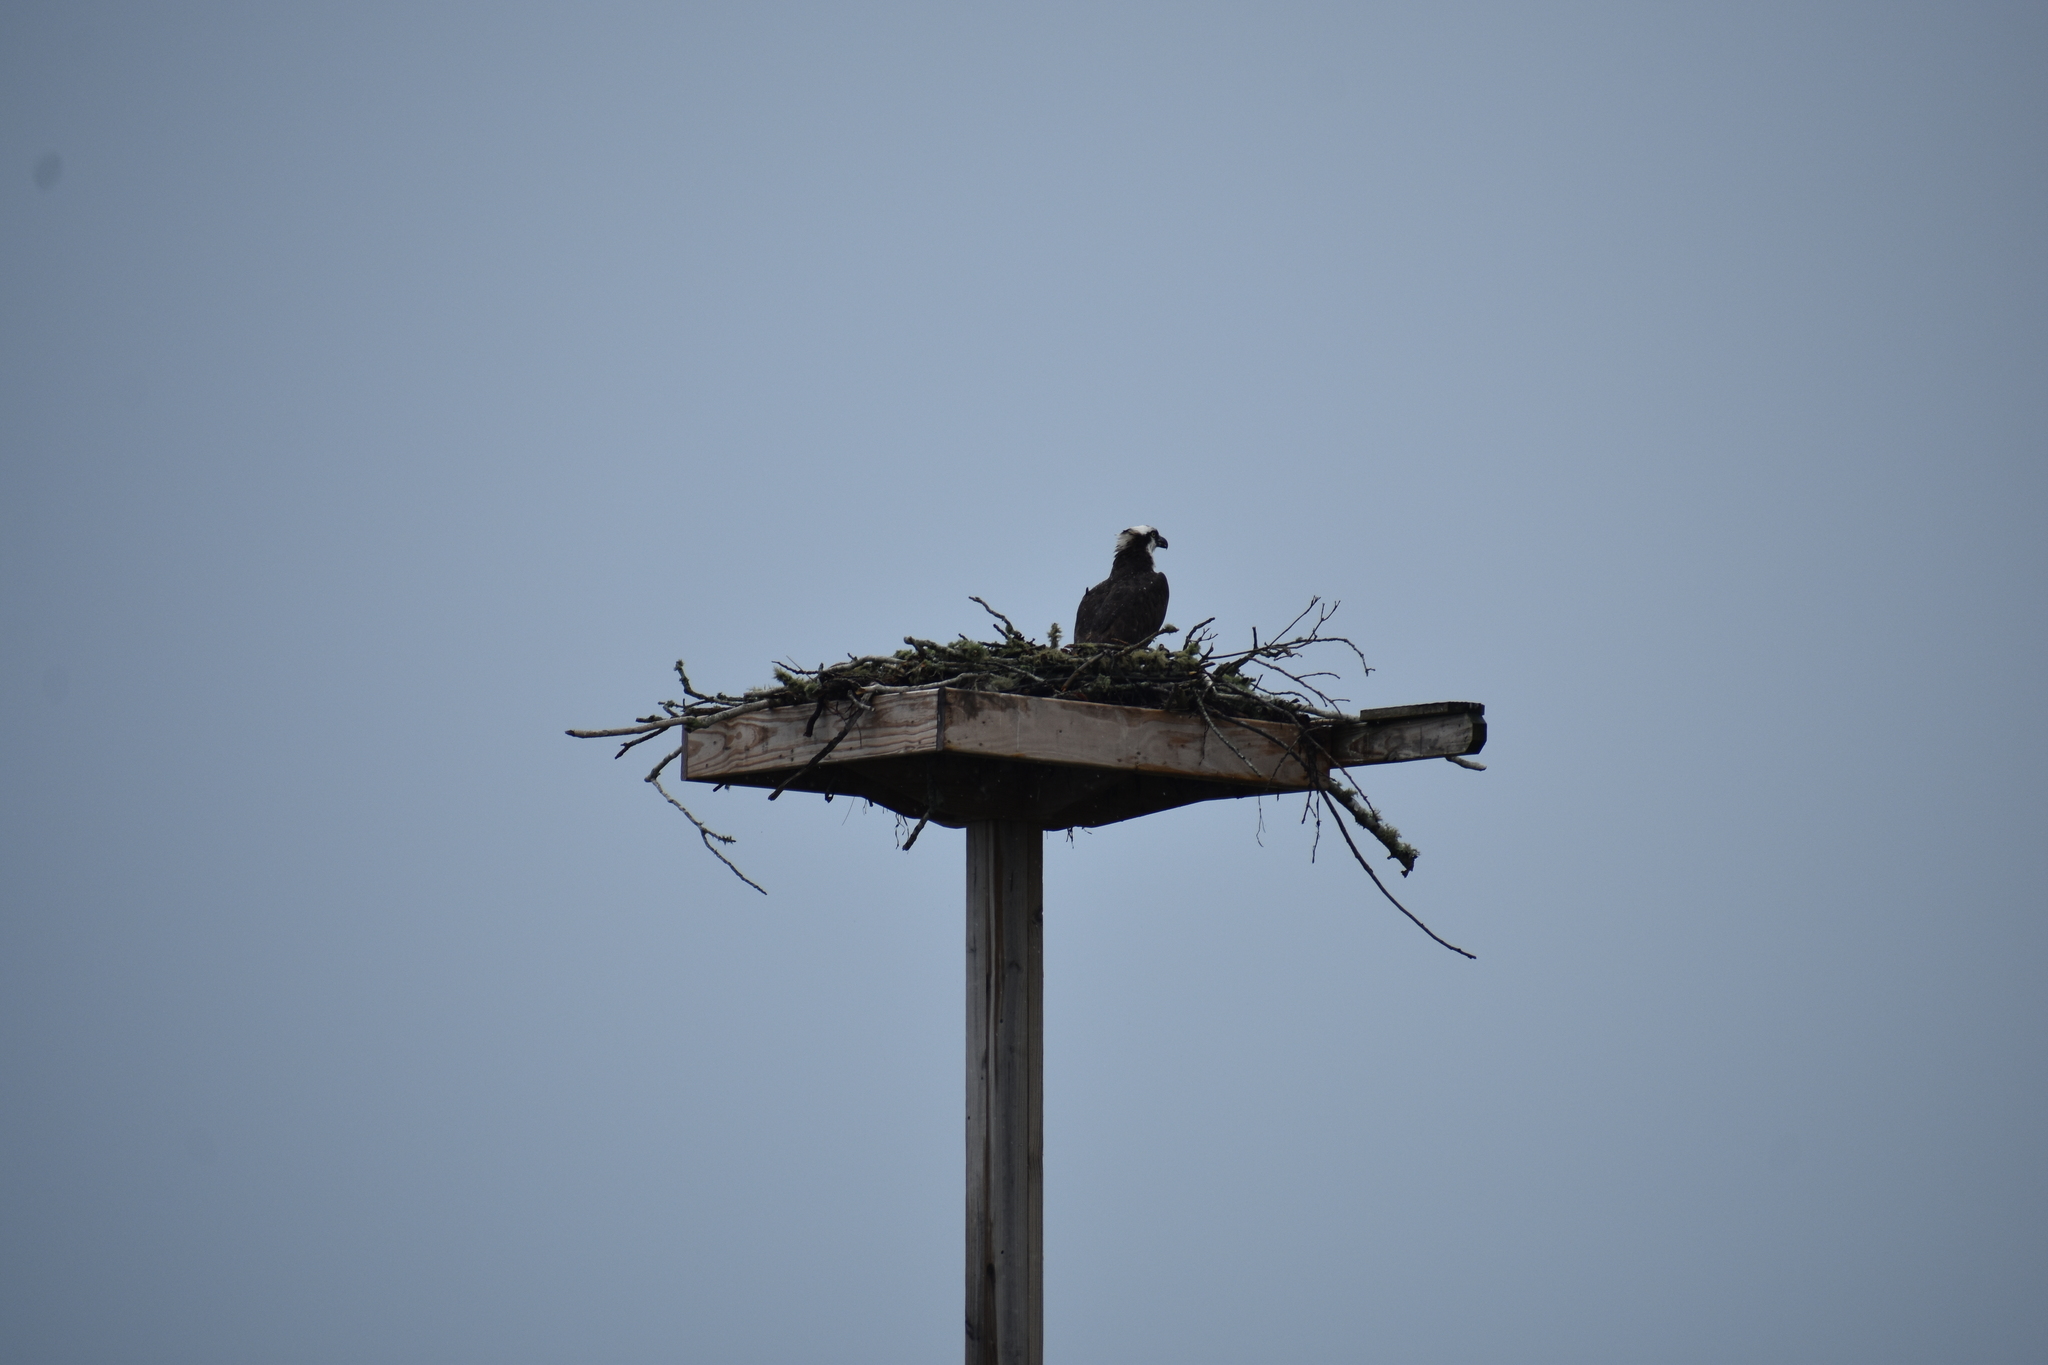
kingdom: Animalia
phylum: Chordata
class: Aves
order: Accipitriformes
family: Pandionidae
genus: Pandion
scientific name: Pandion haliaetus
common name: Osprey
